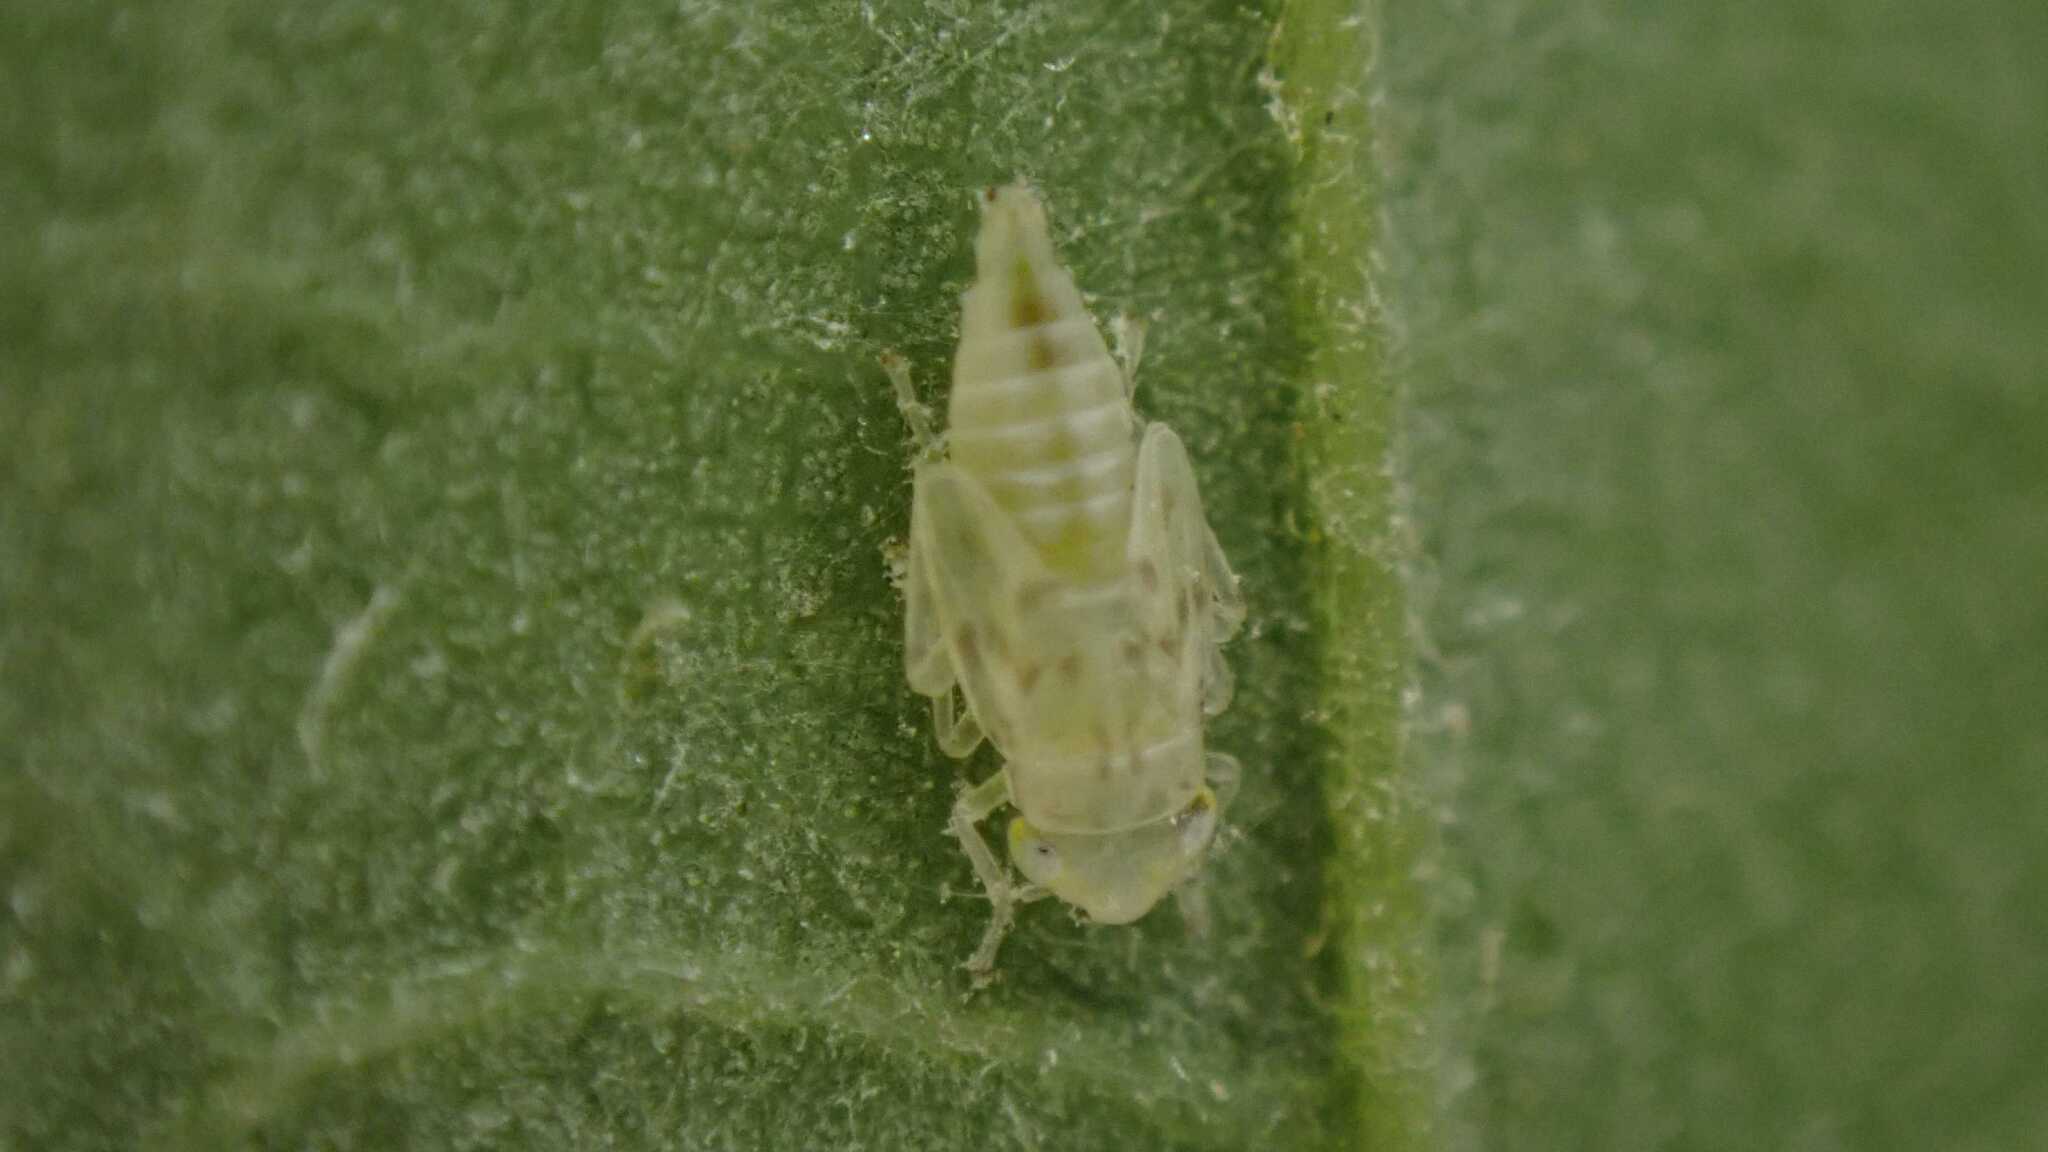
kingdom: Animalia
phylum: Arthropoda
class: Insecta
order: Hemiptera
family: Cicadellidae
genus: Zyginella
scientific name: Zyginella pulchra
